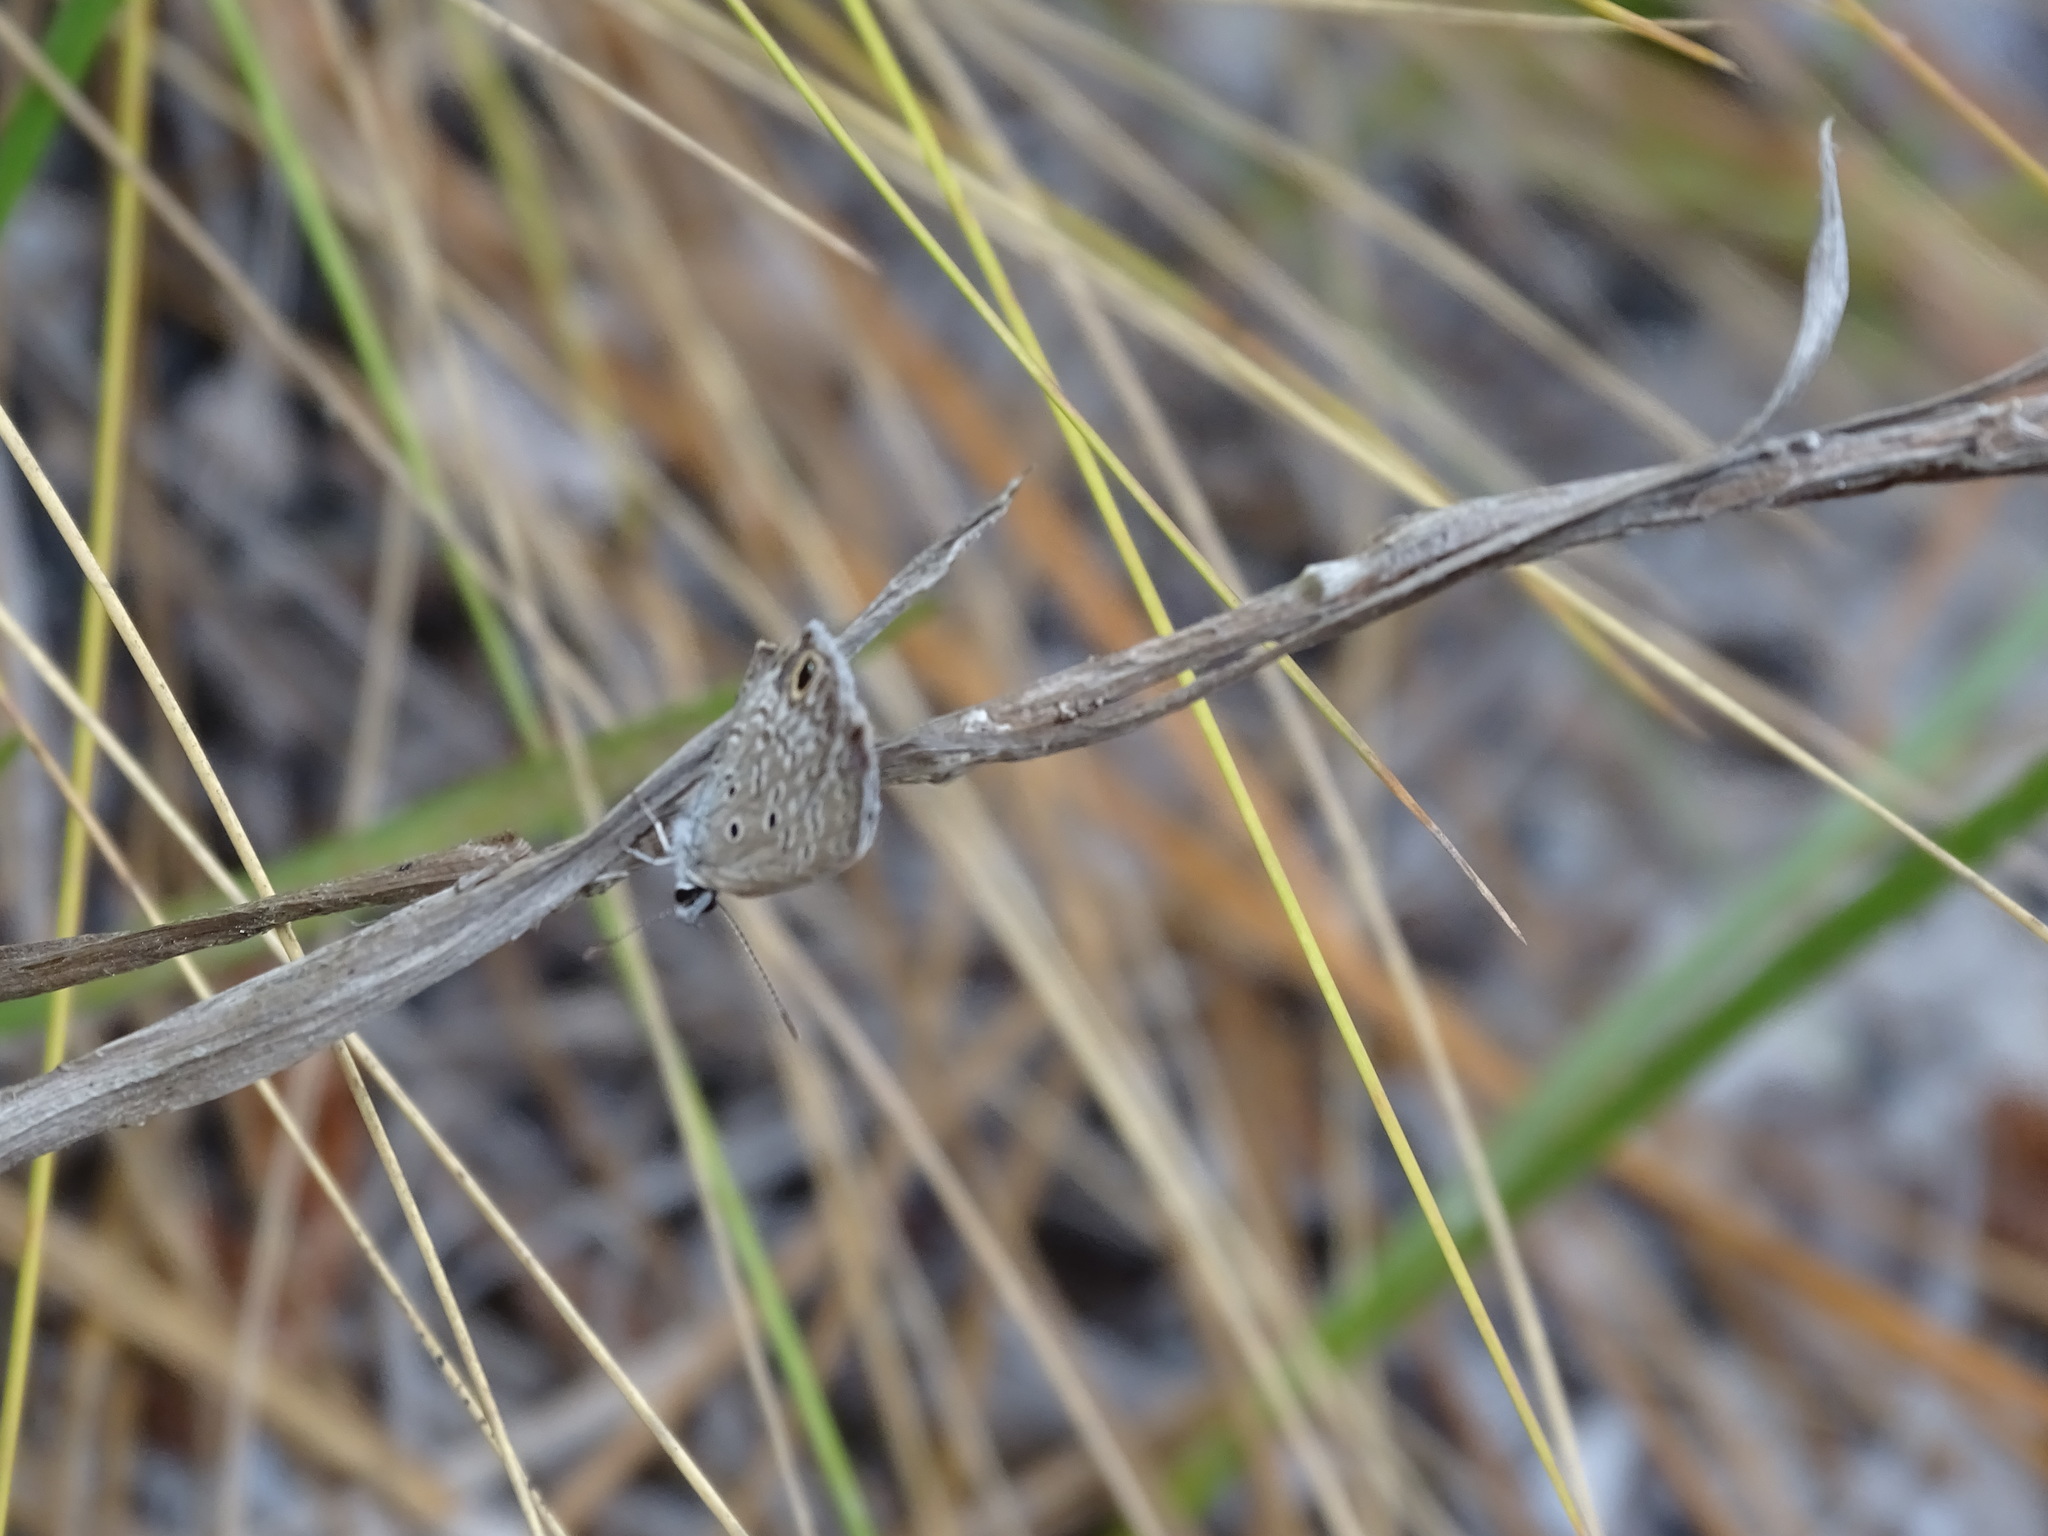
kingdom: Animalia
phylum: Arthropoda
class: Insecta
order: Lepidoptera
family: Lycaenidae
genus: Hemiargus
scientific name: Hemiargus ceraunus
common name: Ceraunus blue
